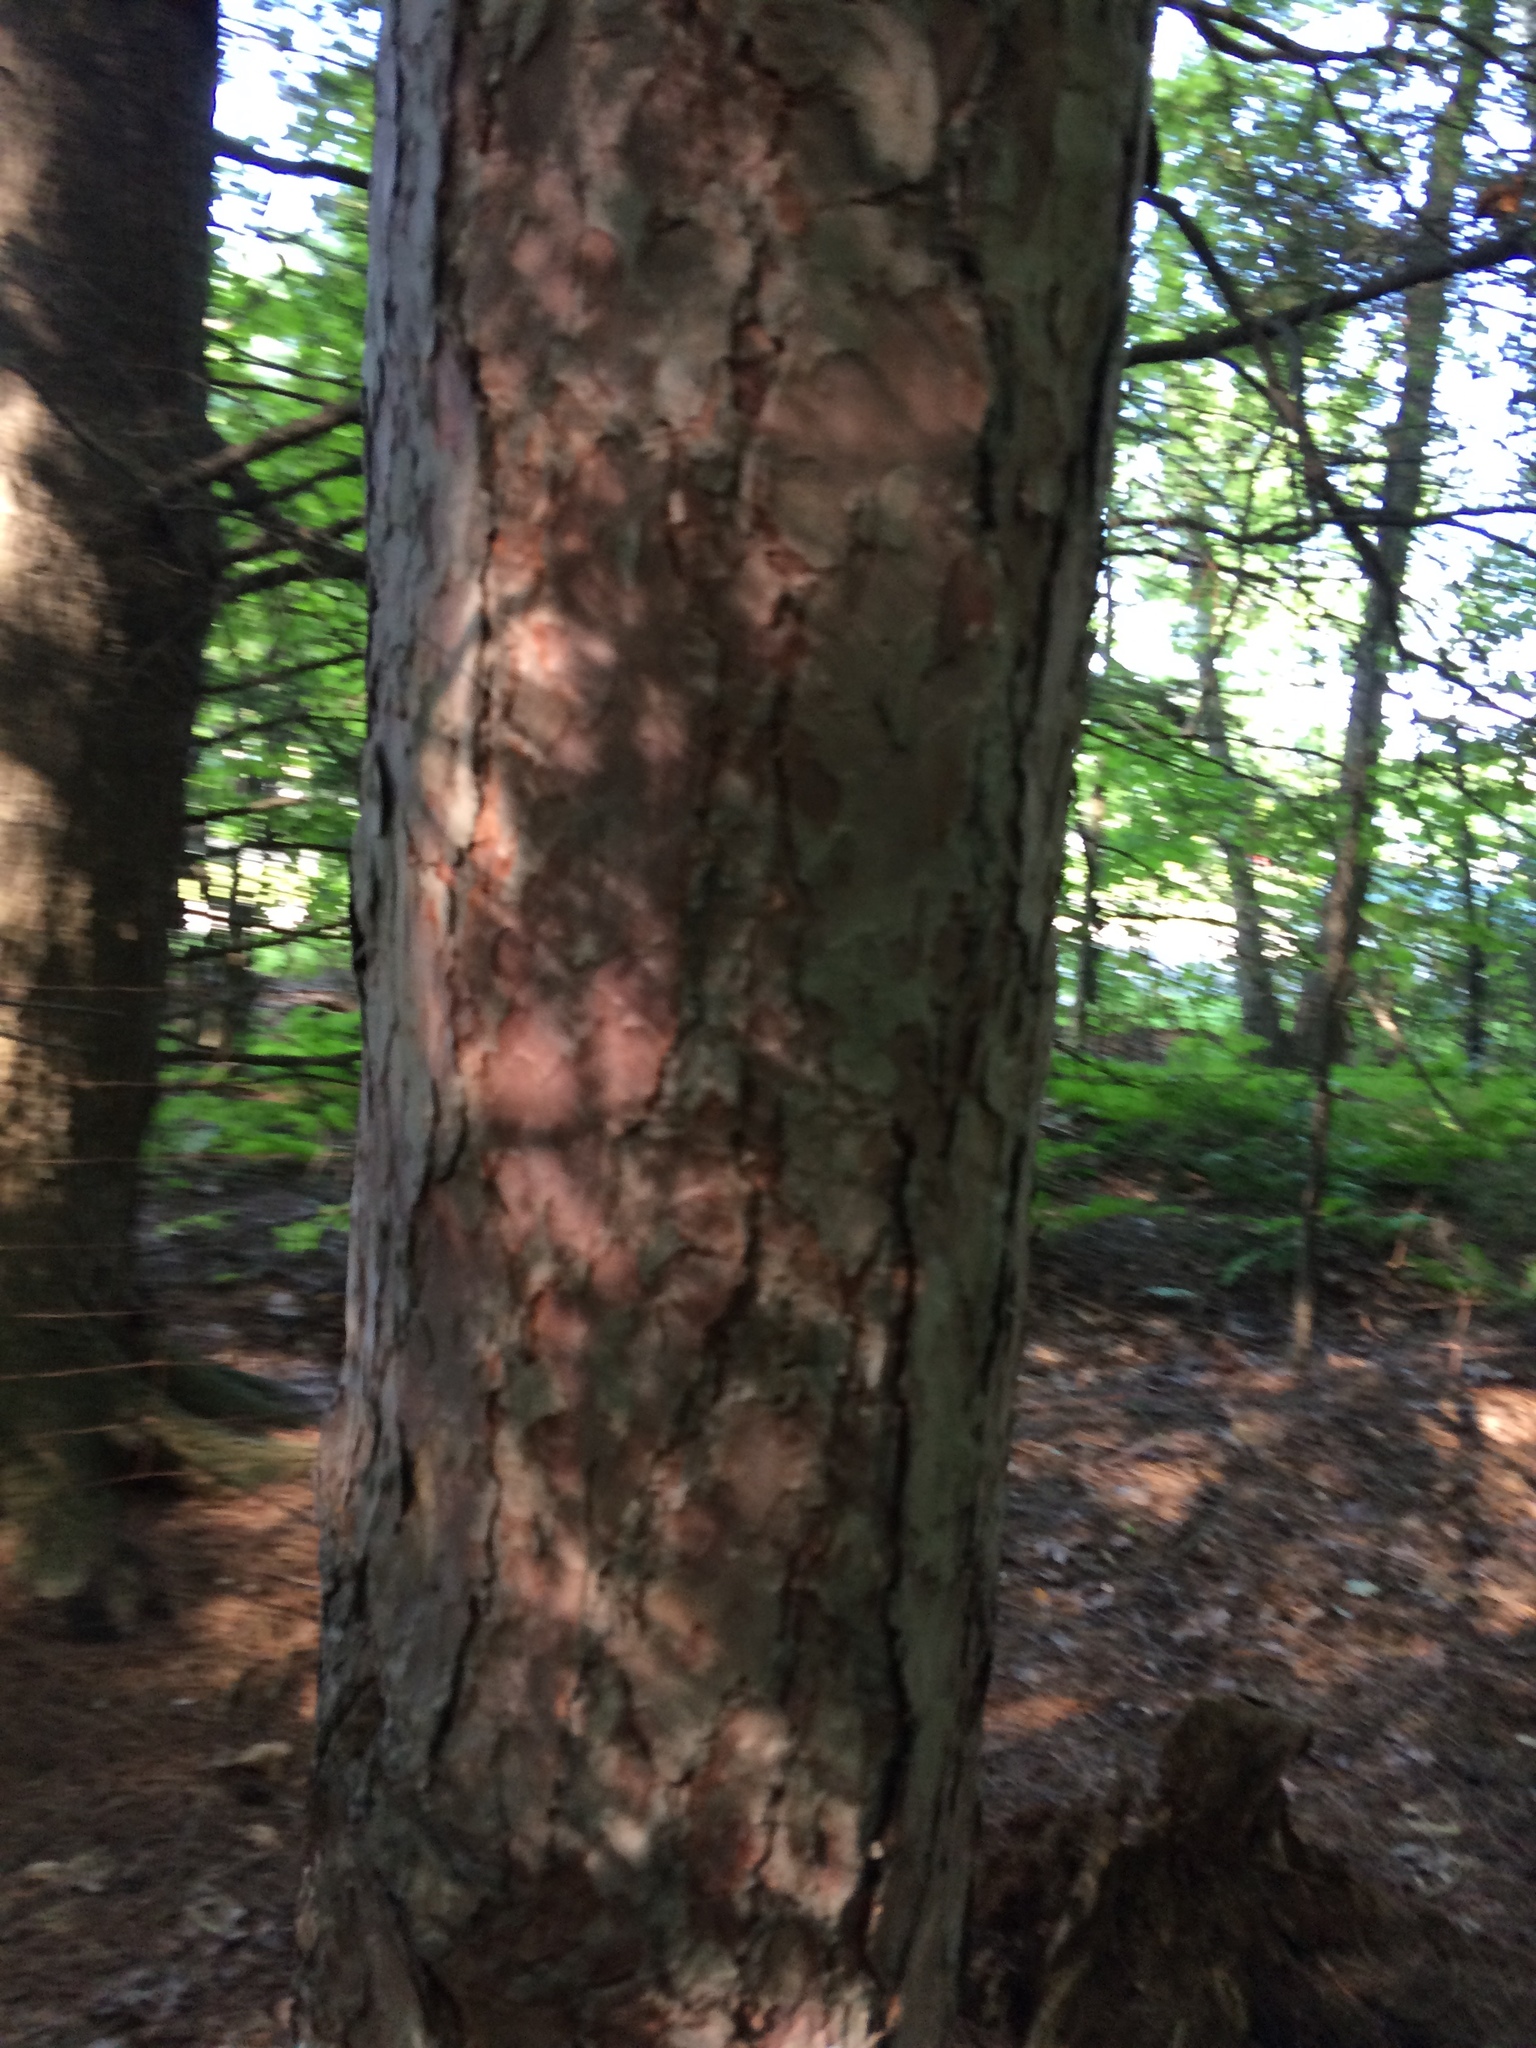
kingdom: Plantae
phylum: Tracheophyta
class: Pinopsida
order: Pinales
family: Pinaceae
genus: Pinus
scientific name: Pinus resinosa
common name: Norway pine
